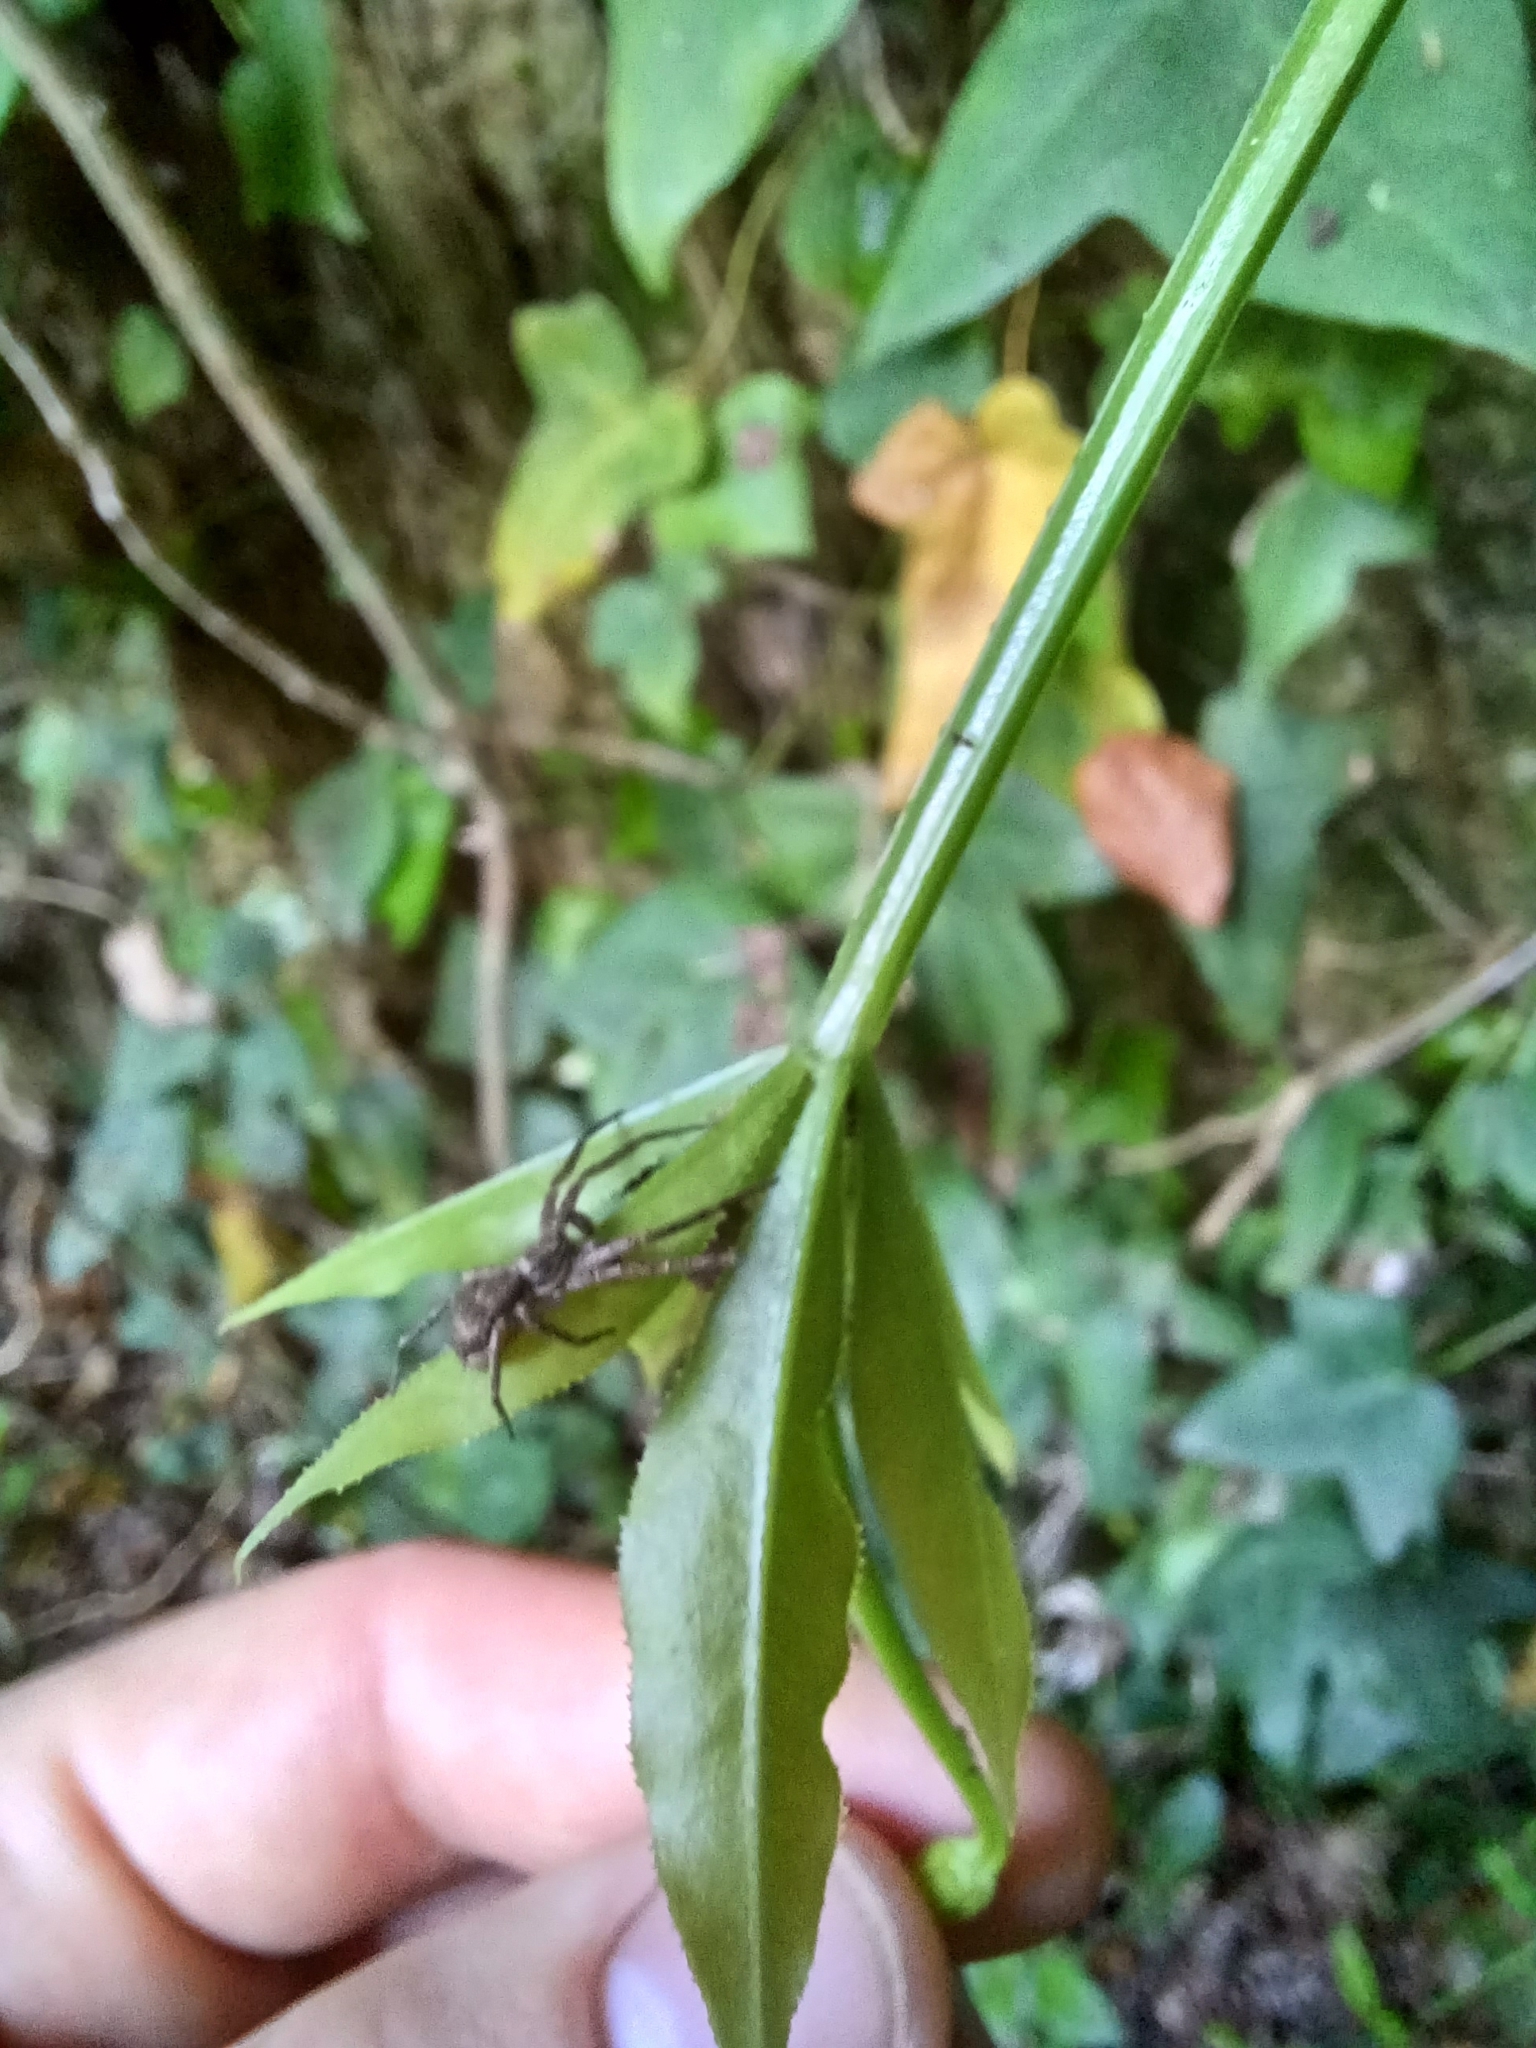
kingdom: Animalia
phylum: Arthropoda
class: Arachnida
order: Araneae
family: Philodromidae
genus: Philodromus
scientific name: Philodromus dispar
